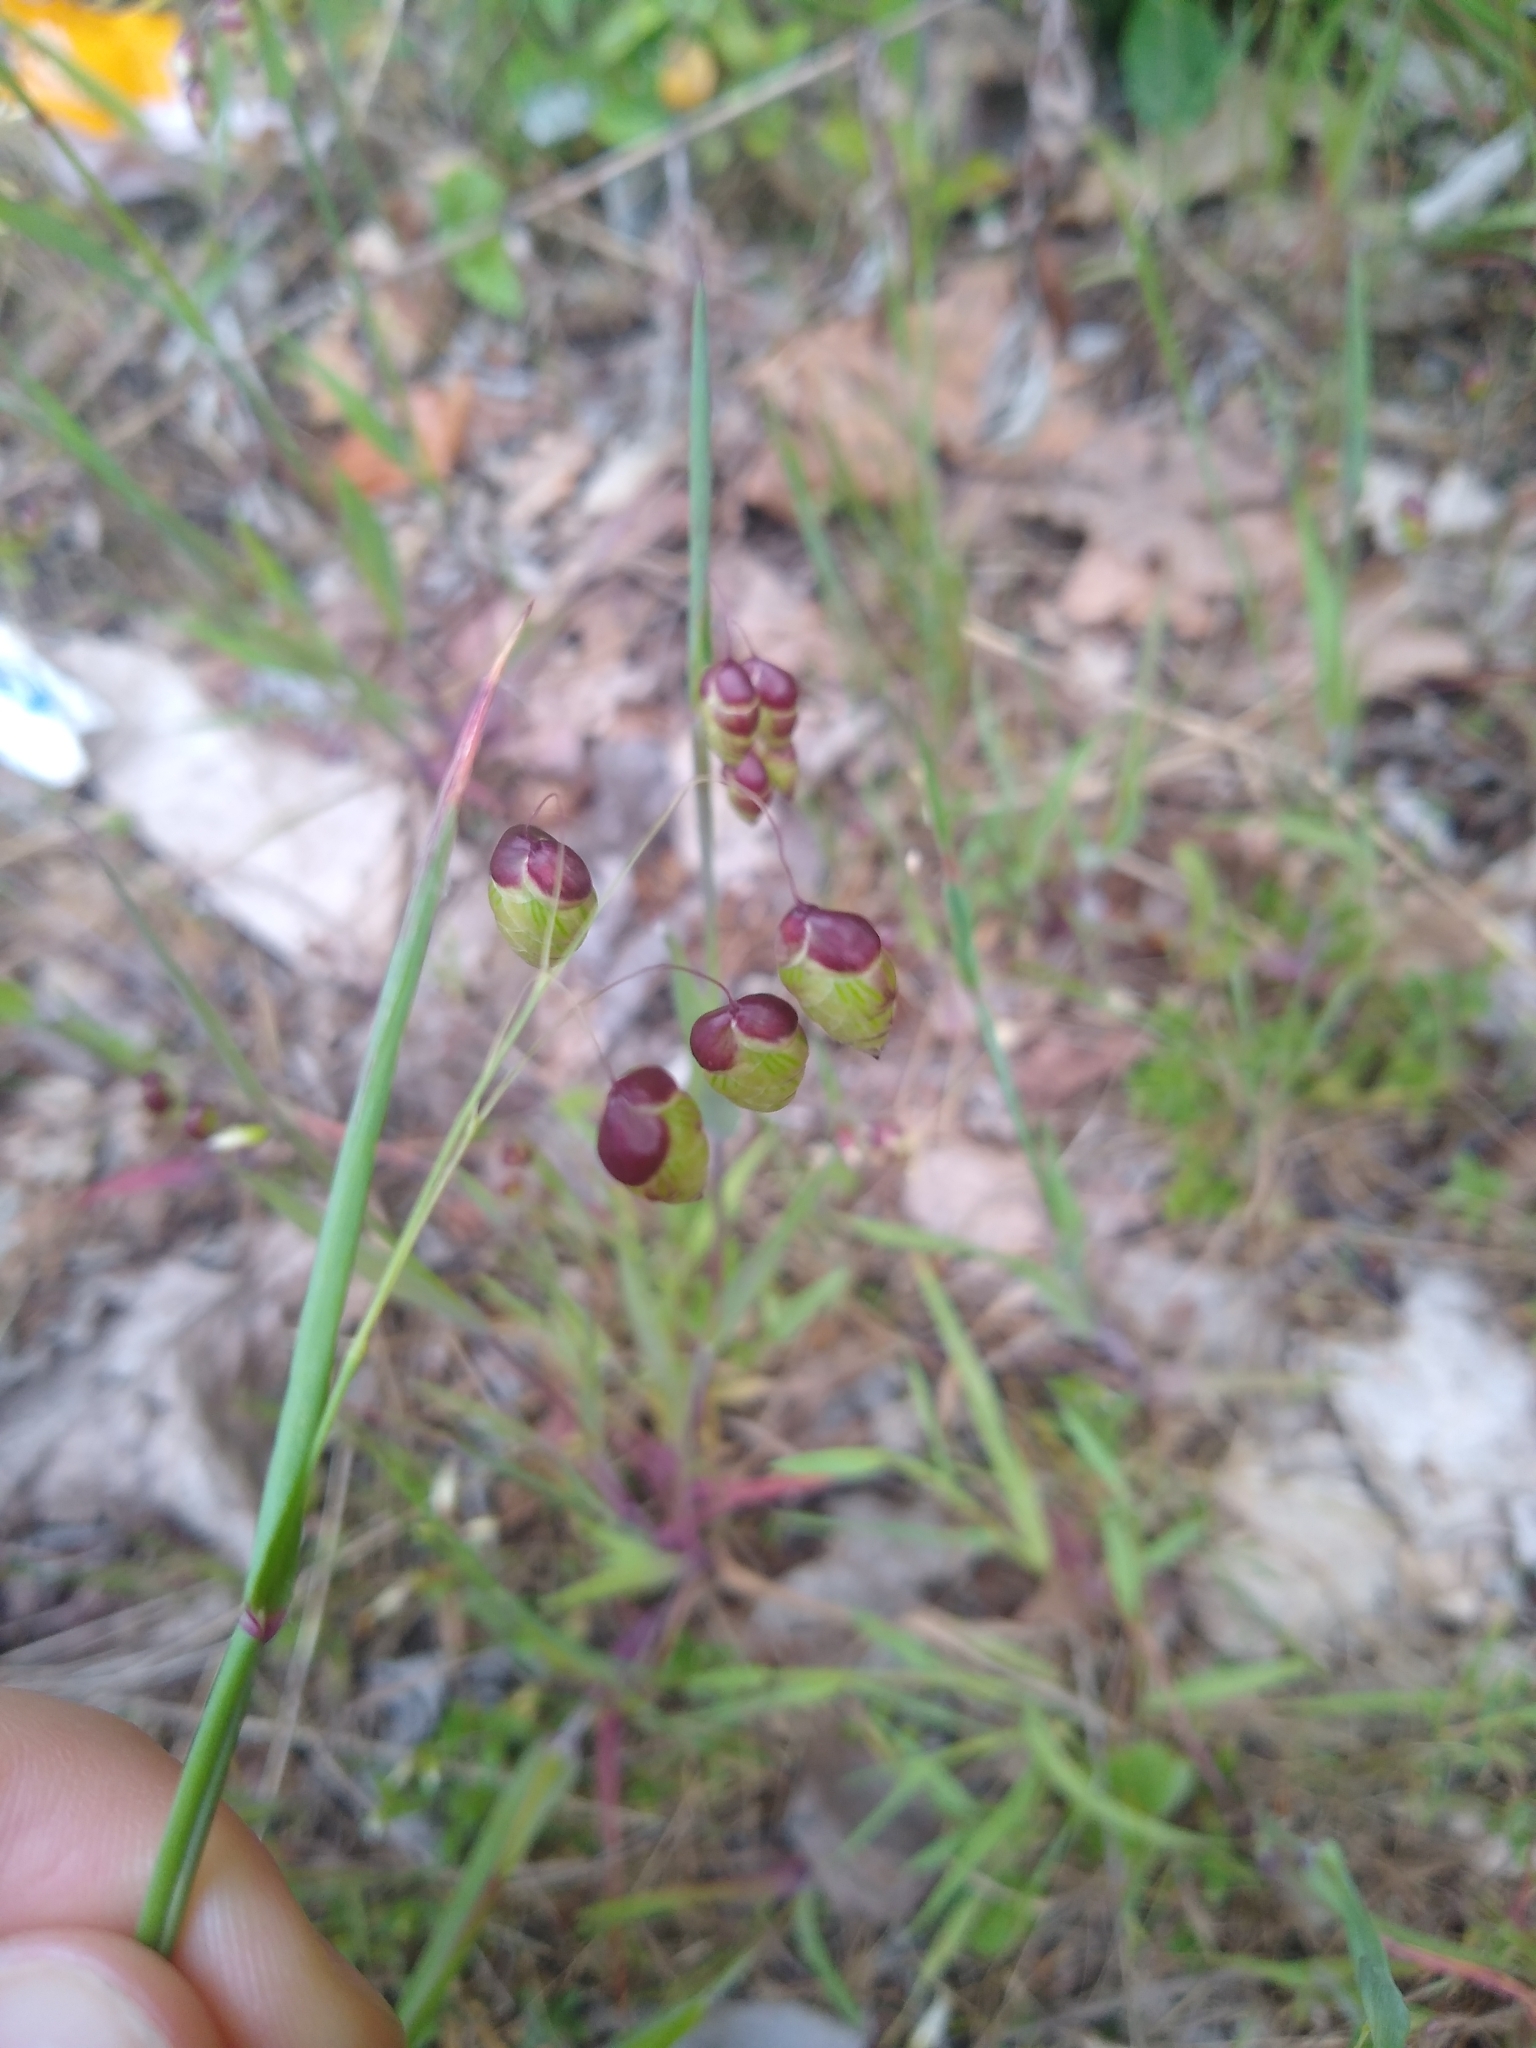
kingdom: Plantae
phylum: Tracheophyta
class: Liliopsida
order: Poales
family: Poaceae
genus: Briza
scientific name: Briza maxima
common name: Big quakinggrass
